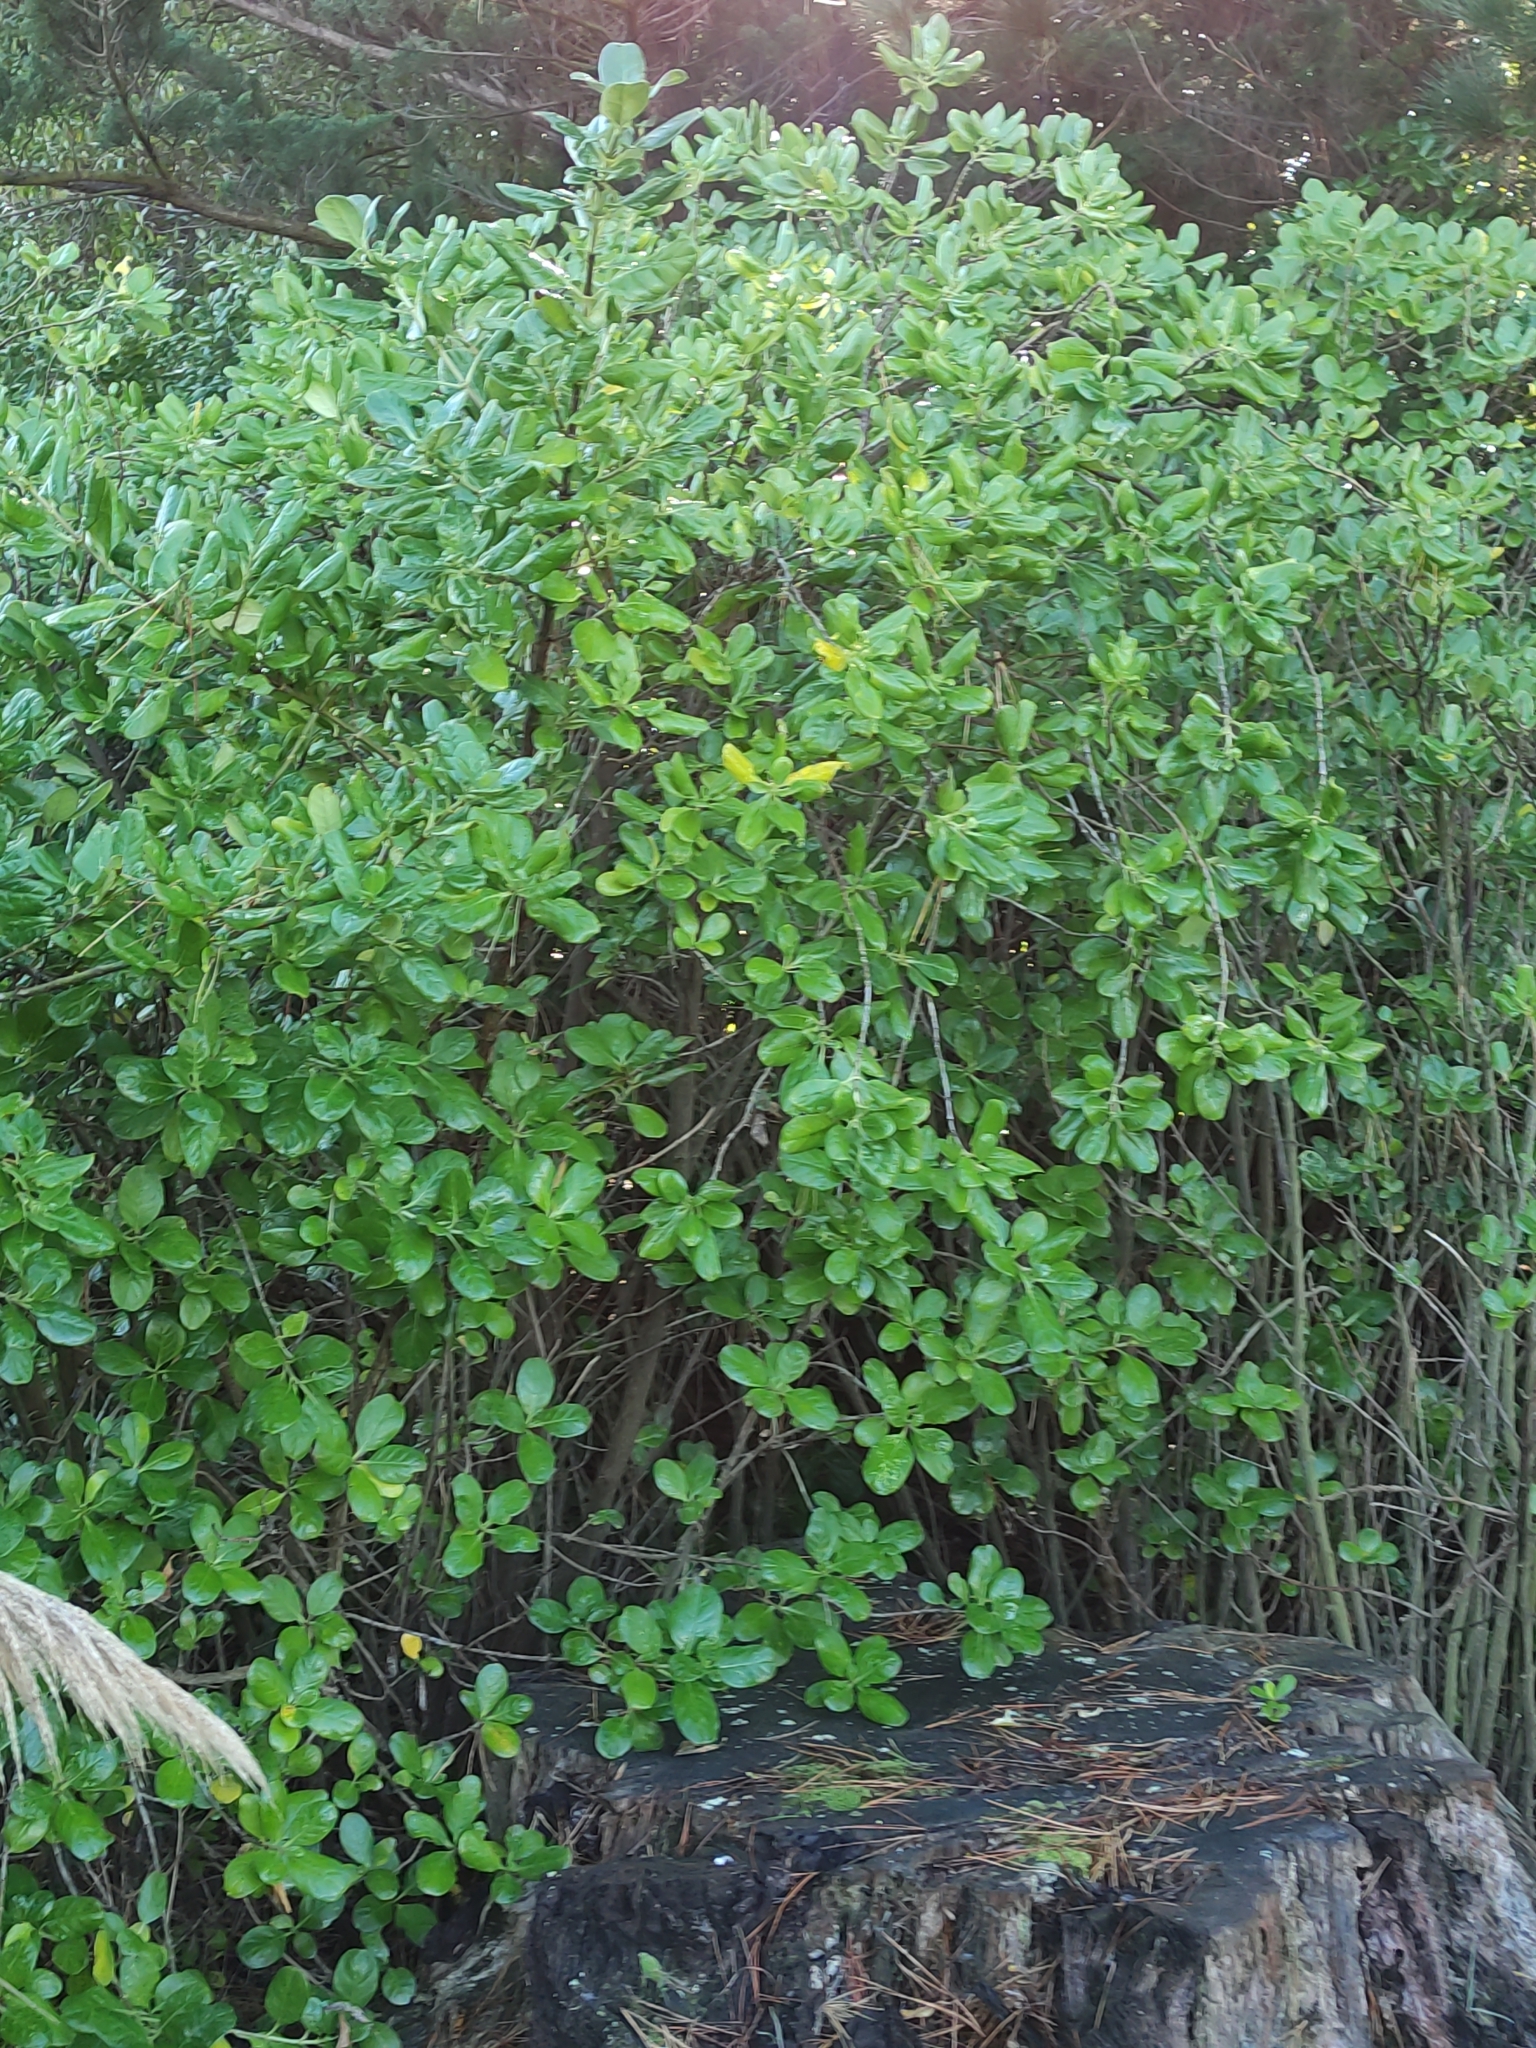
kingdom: Plantae
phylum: Tracheophyta
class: Magnoliopsida
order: Gentianales
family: Rubiaceae
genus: Coprosma
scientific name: Coprosma repens
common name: Tree bedstraw
